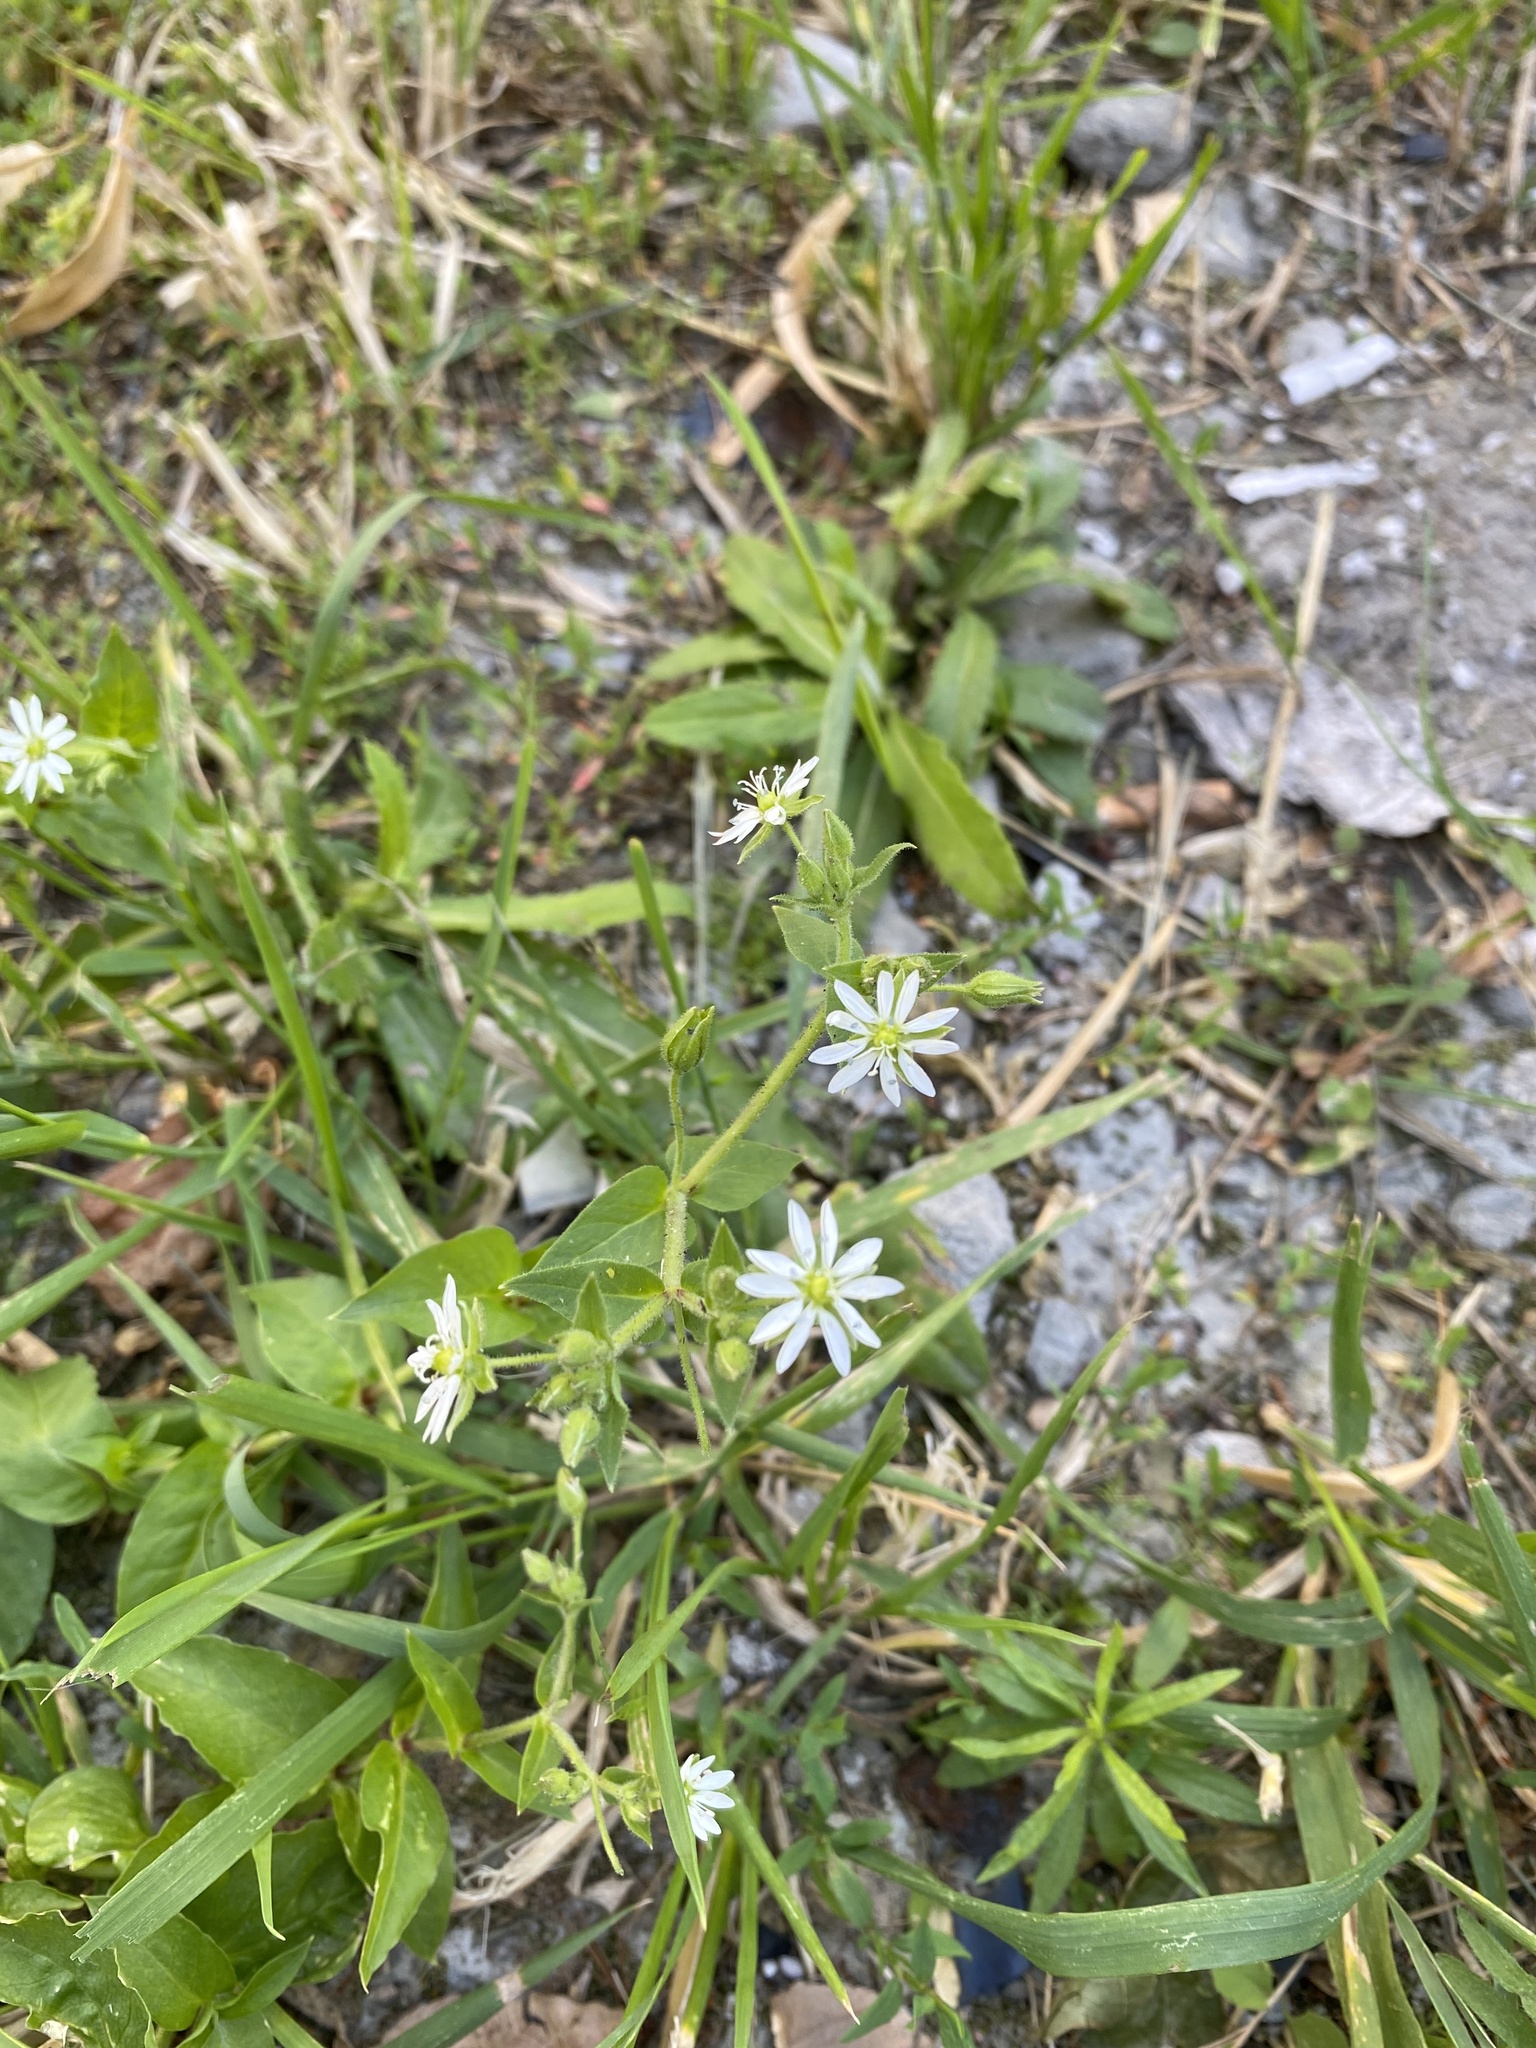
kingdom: Plantae
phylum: Tracheophyta
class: Magnoliopsida
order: Caryophyllales
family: Caryophyllaceae
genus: Stellaria
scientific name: Stellaria aquatica
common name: Water chickweed
